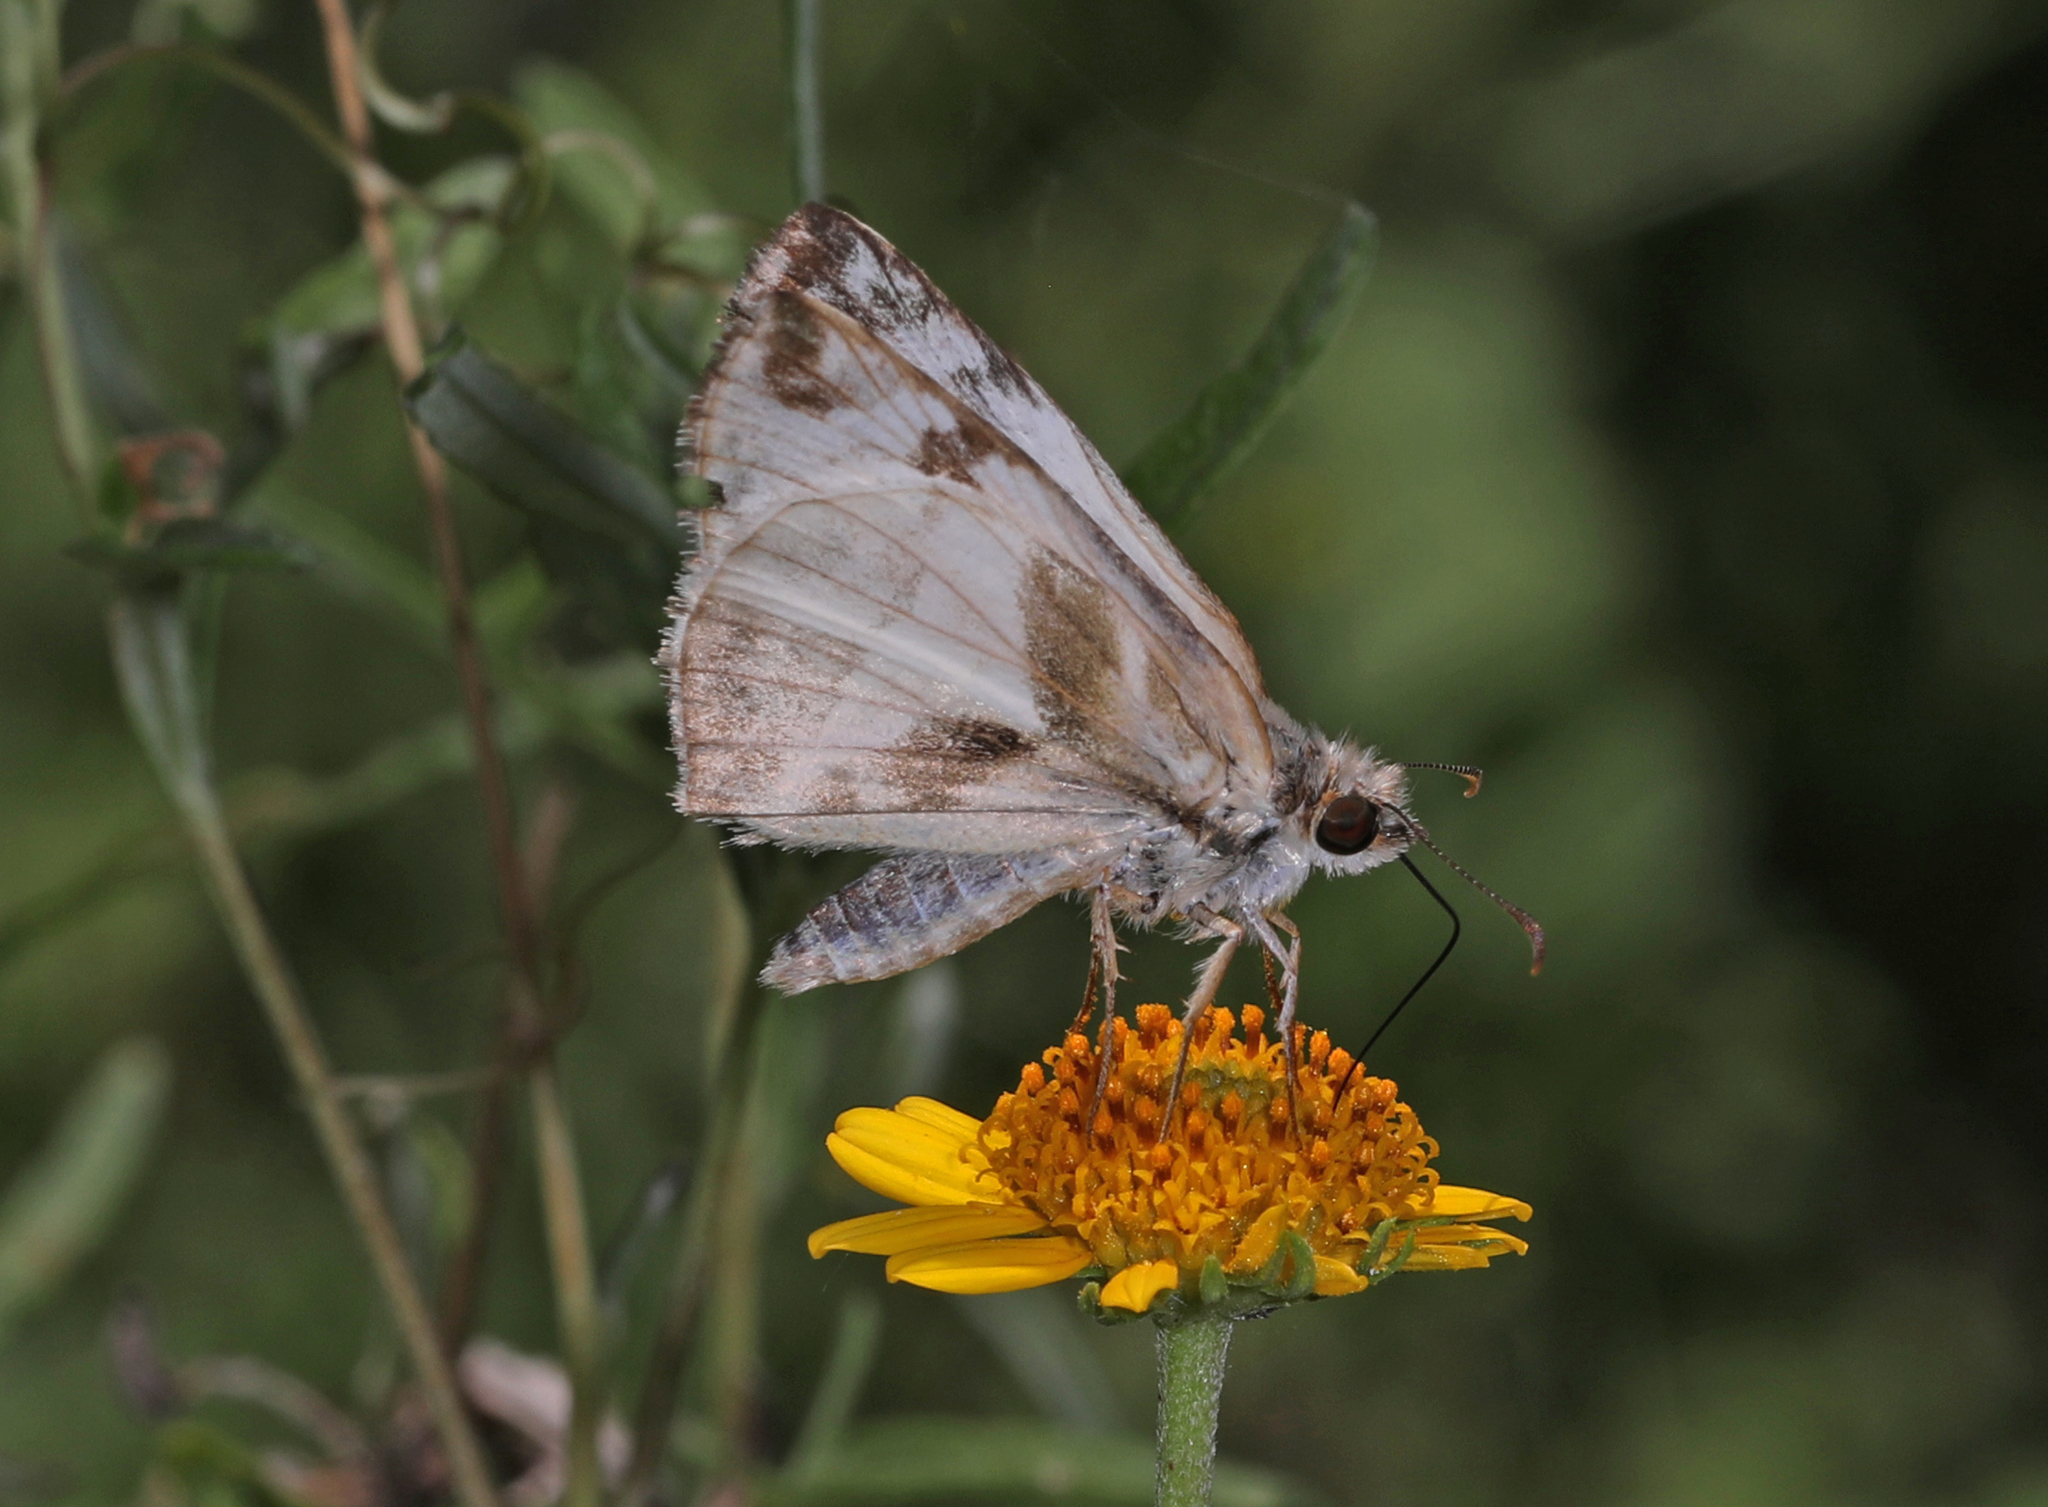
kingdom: Animalia
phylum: Arthropoda
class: Insecta
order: Lepidoptera
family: Hesperiidae
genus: Heliopetes
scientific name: Heliopetes laviana
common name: Laviana white-skipper
